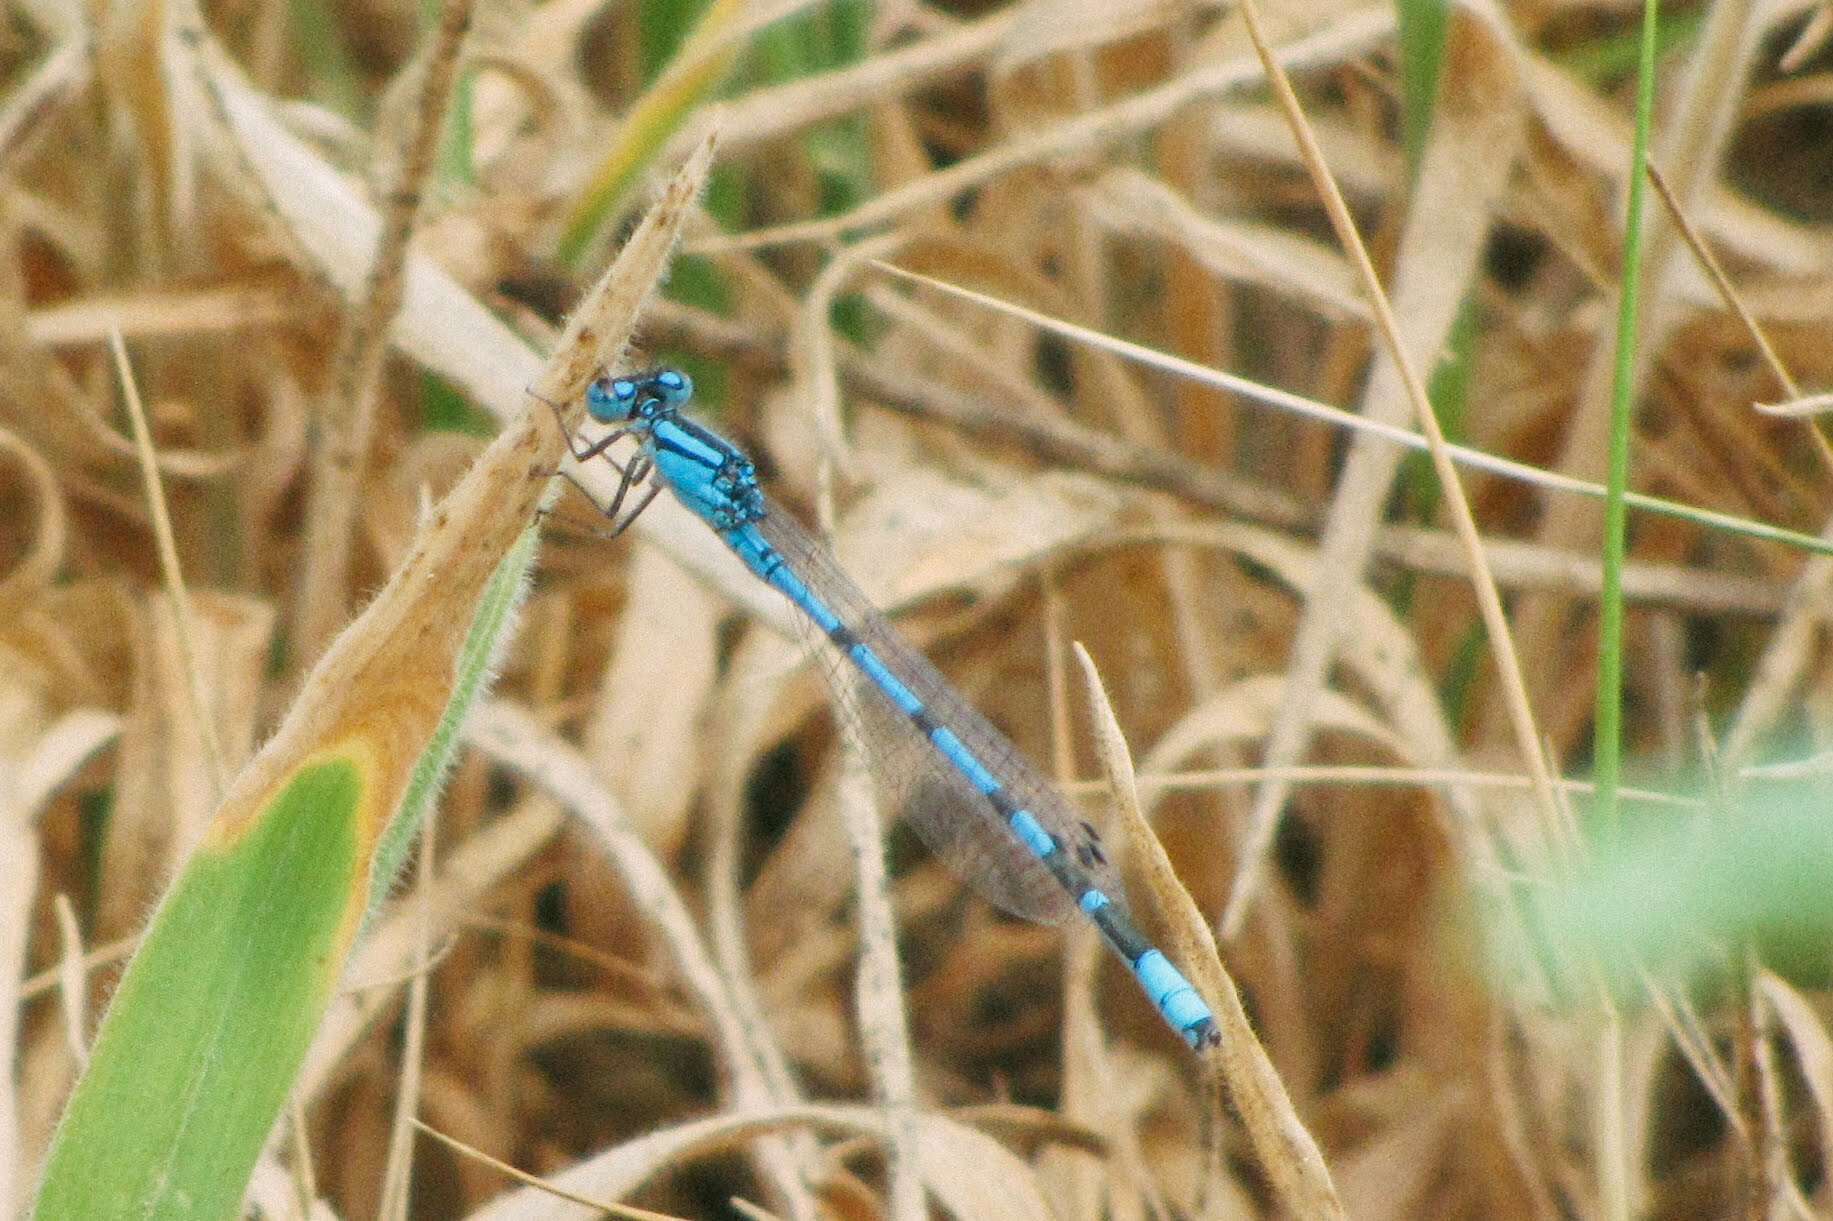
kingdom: Animalia
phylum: Arthropoda
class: Insecta
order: Odonata
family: Coenagrionidae
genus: Enallagma
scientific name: Enallagma cyathigerum
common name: Common blue damselfly
